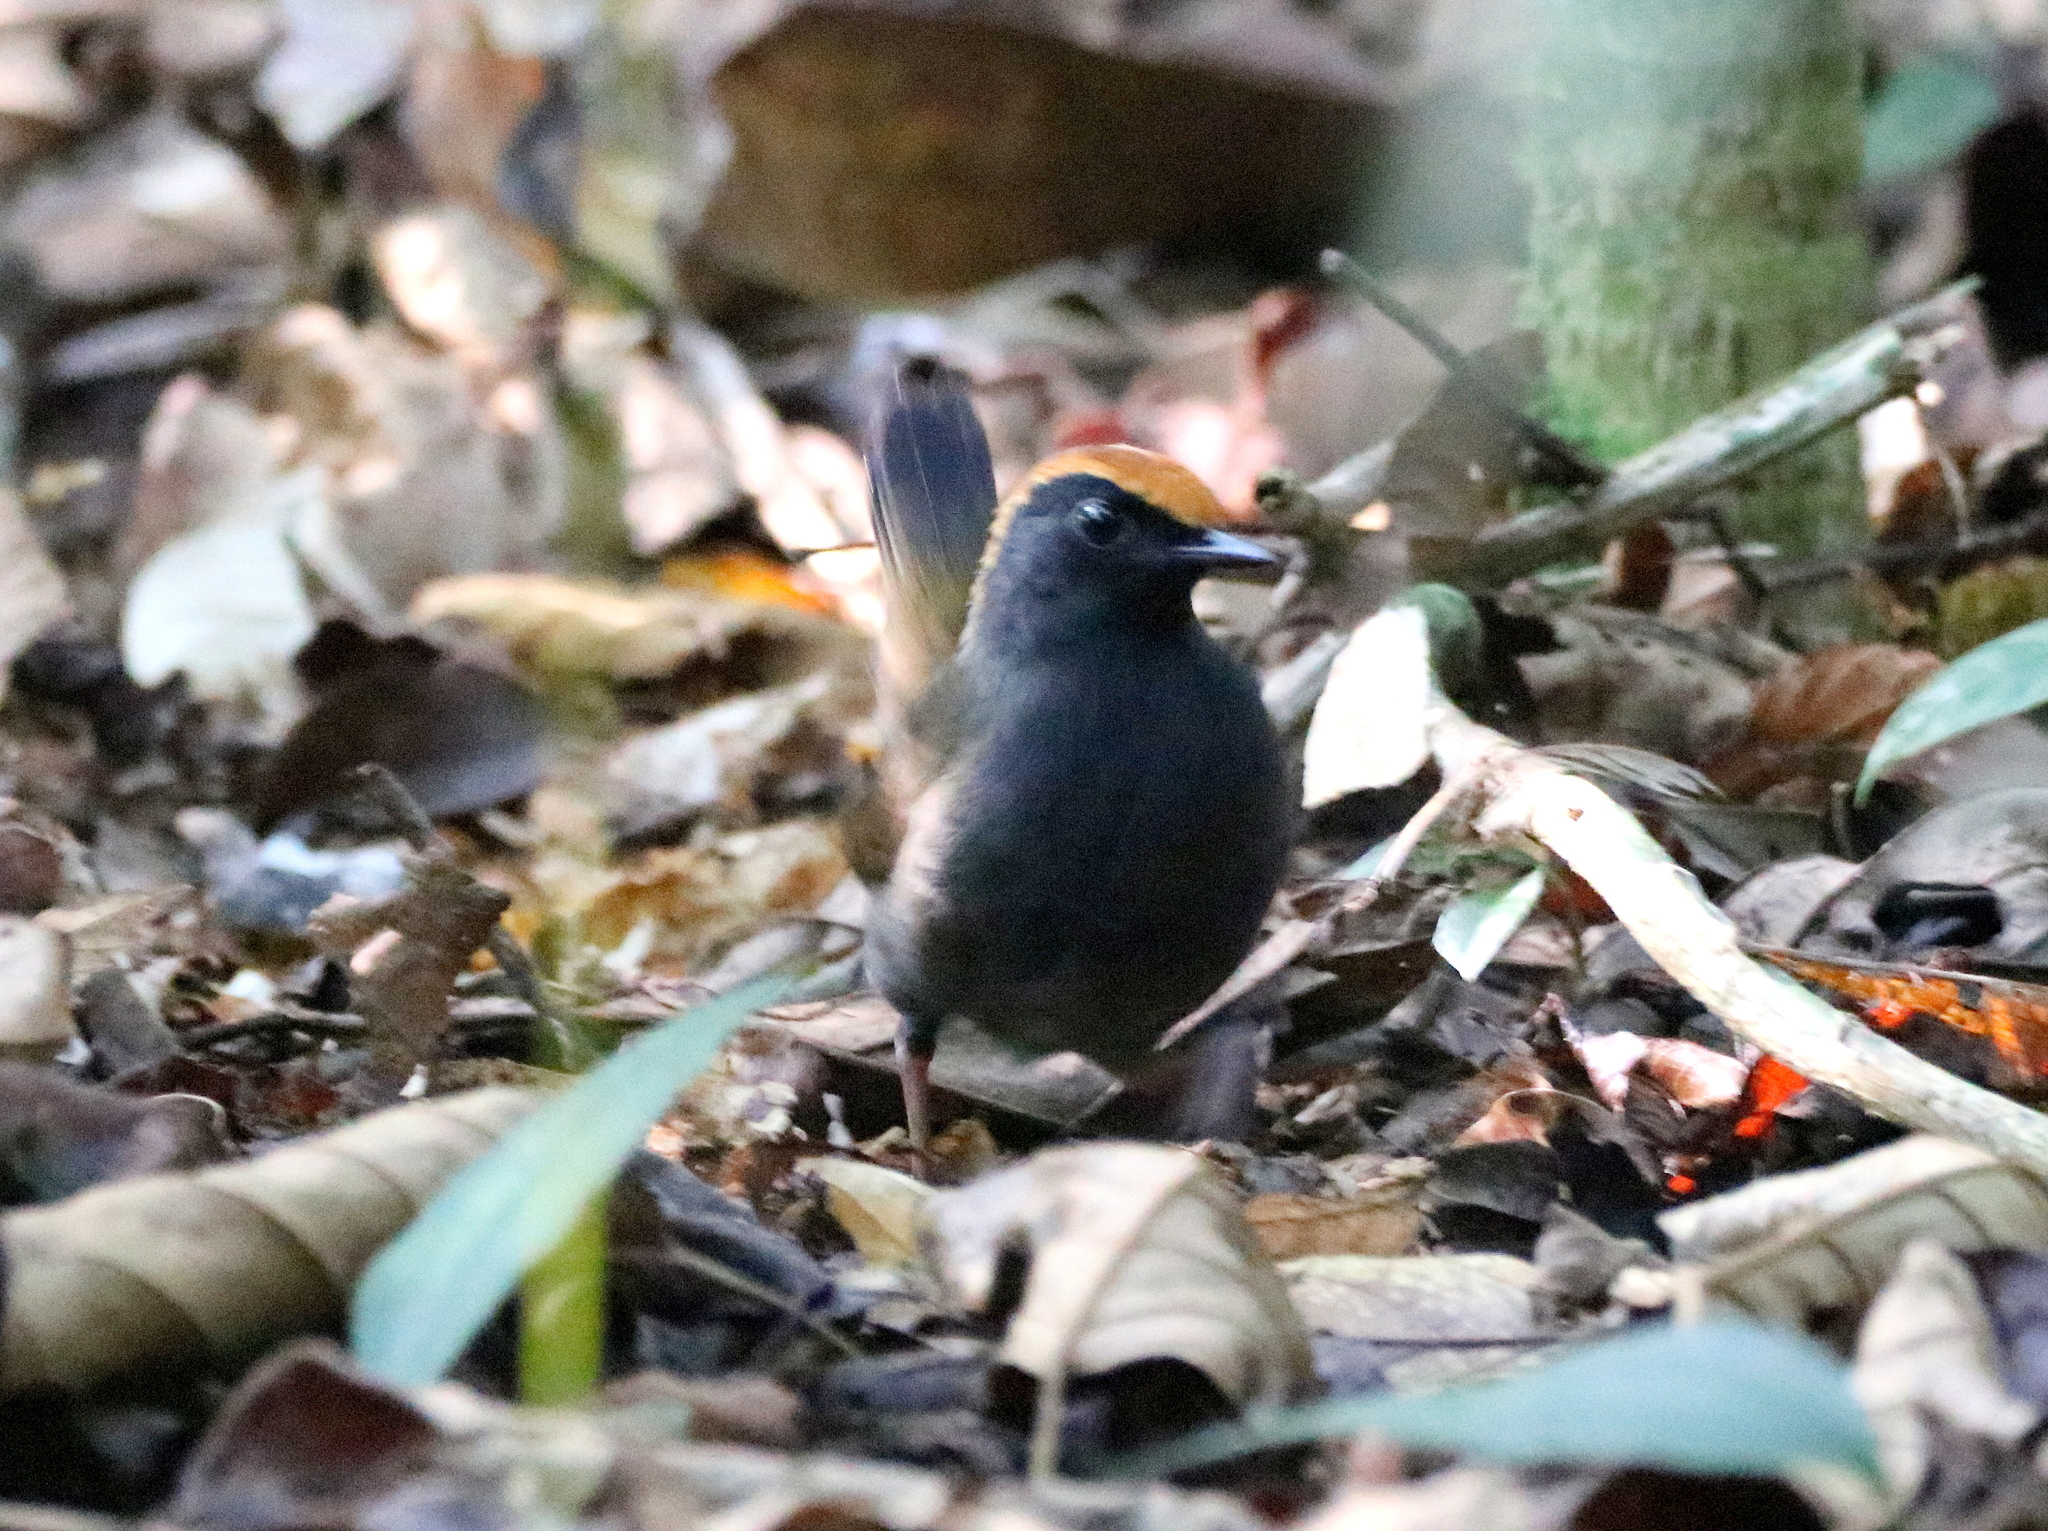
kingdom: Animalia
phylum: Chordata
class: Aves
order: Passeriformes
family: Formicariidae
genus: Formicarius
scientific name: Formicarius colma
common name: Rufous-capped antthrush
